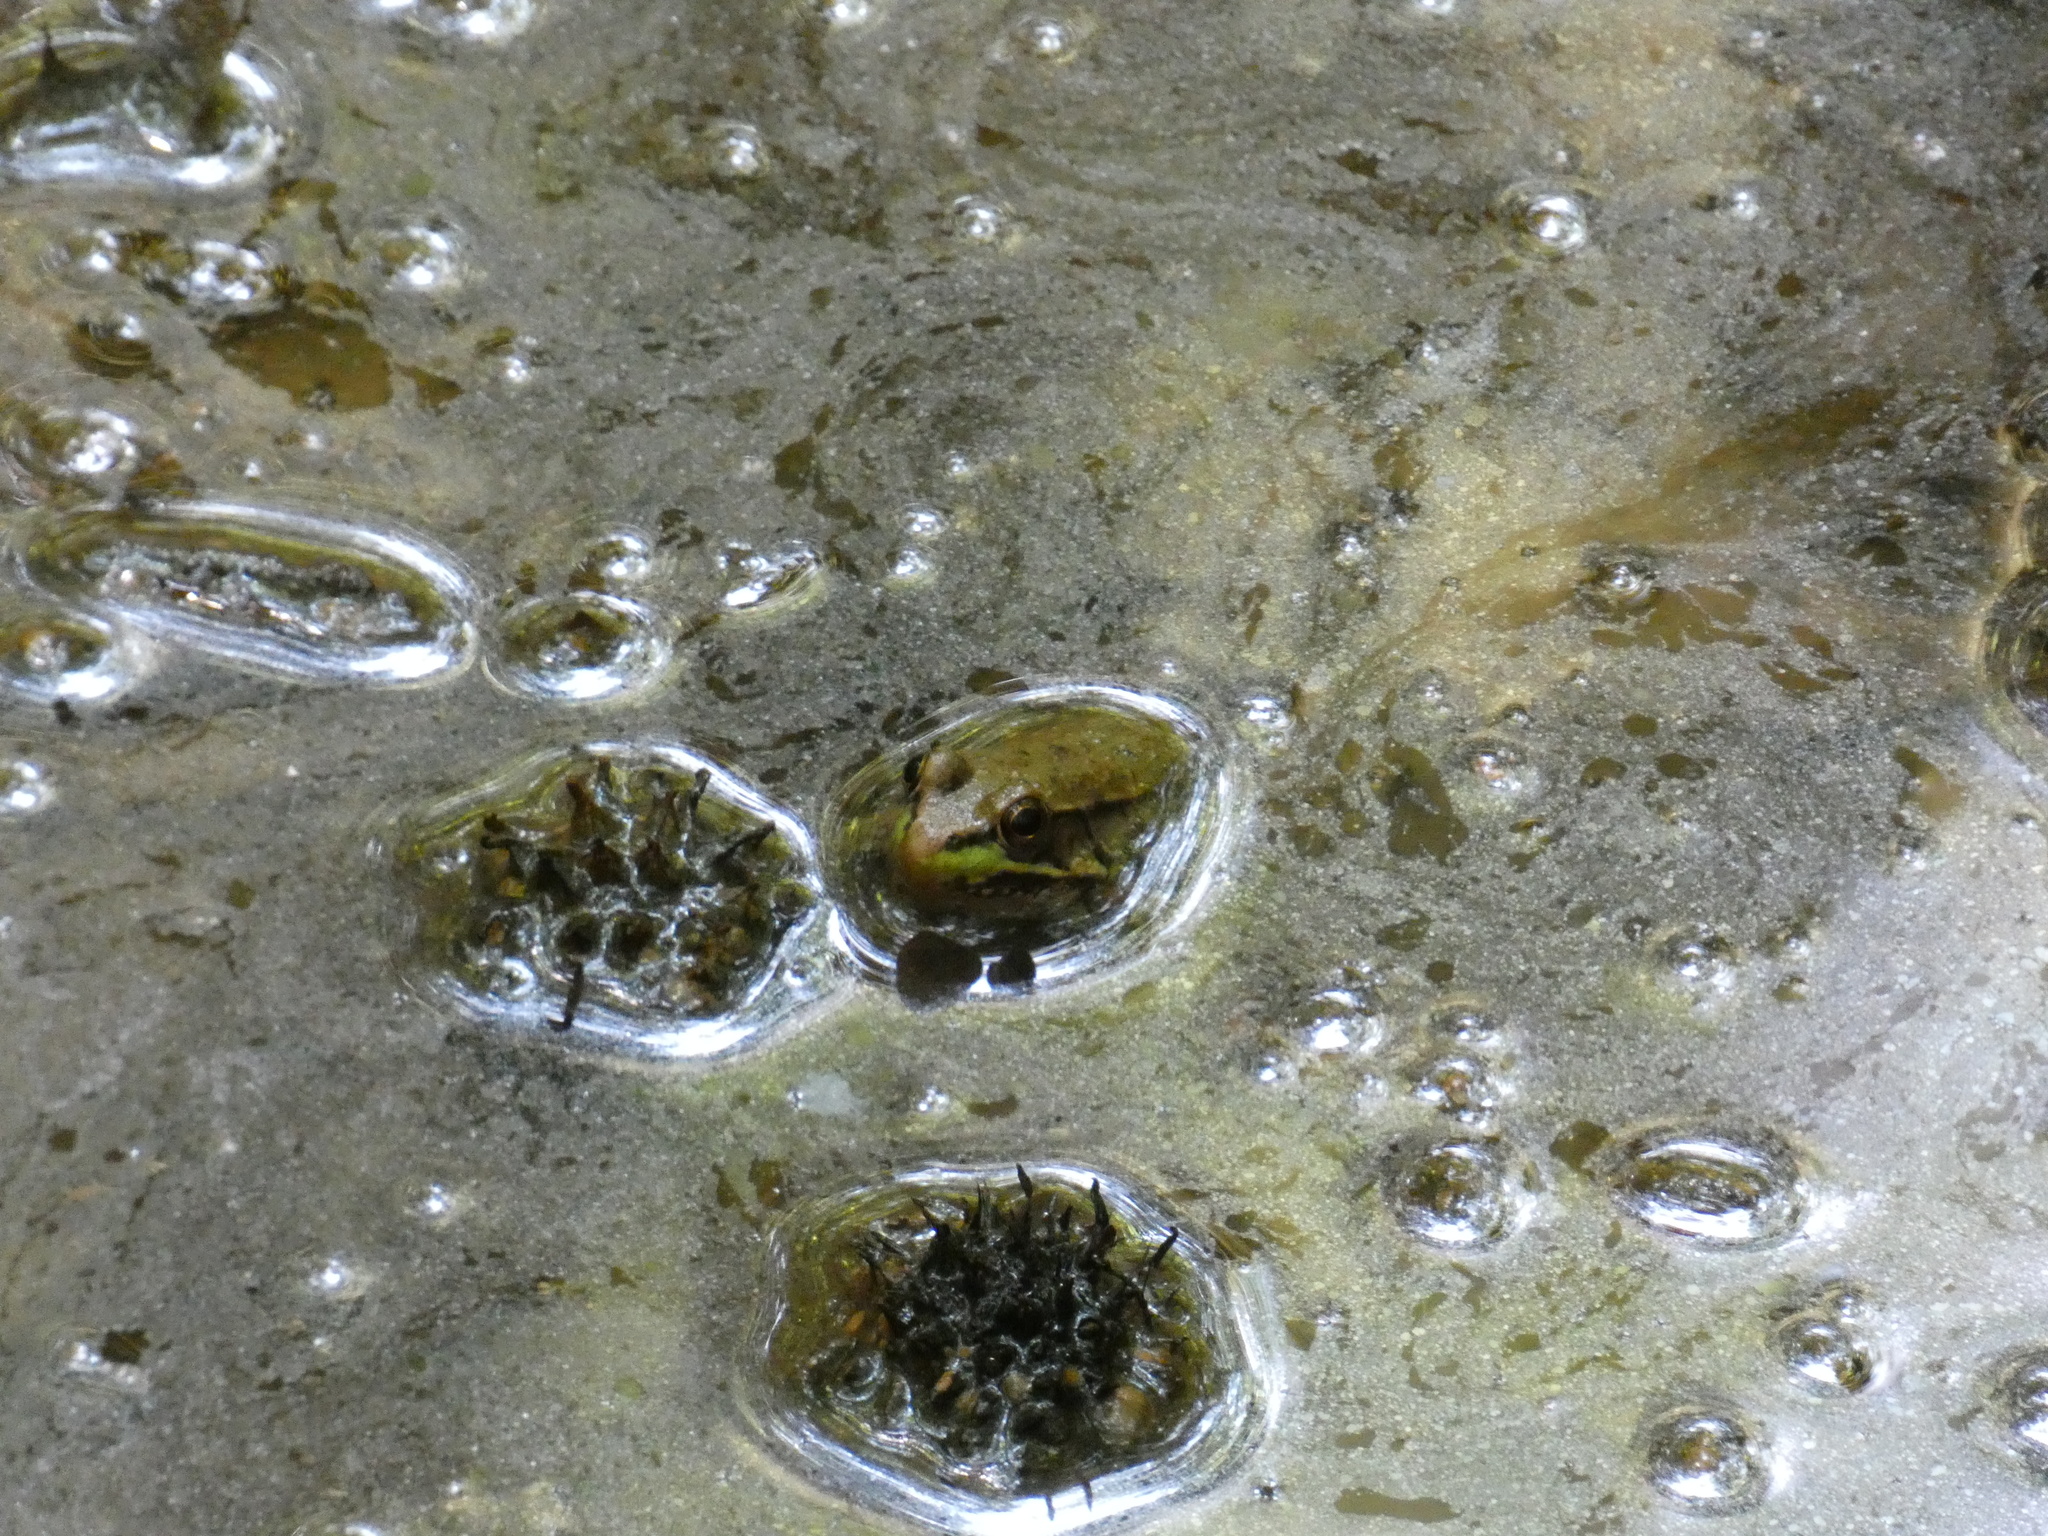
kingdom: Animalia
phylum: Chordata
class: Amphibia
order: Anura
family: Ranidae
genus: Lithobates
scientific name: Lithobates clamitans
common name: Green frog
